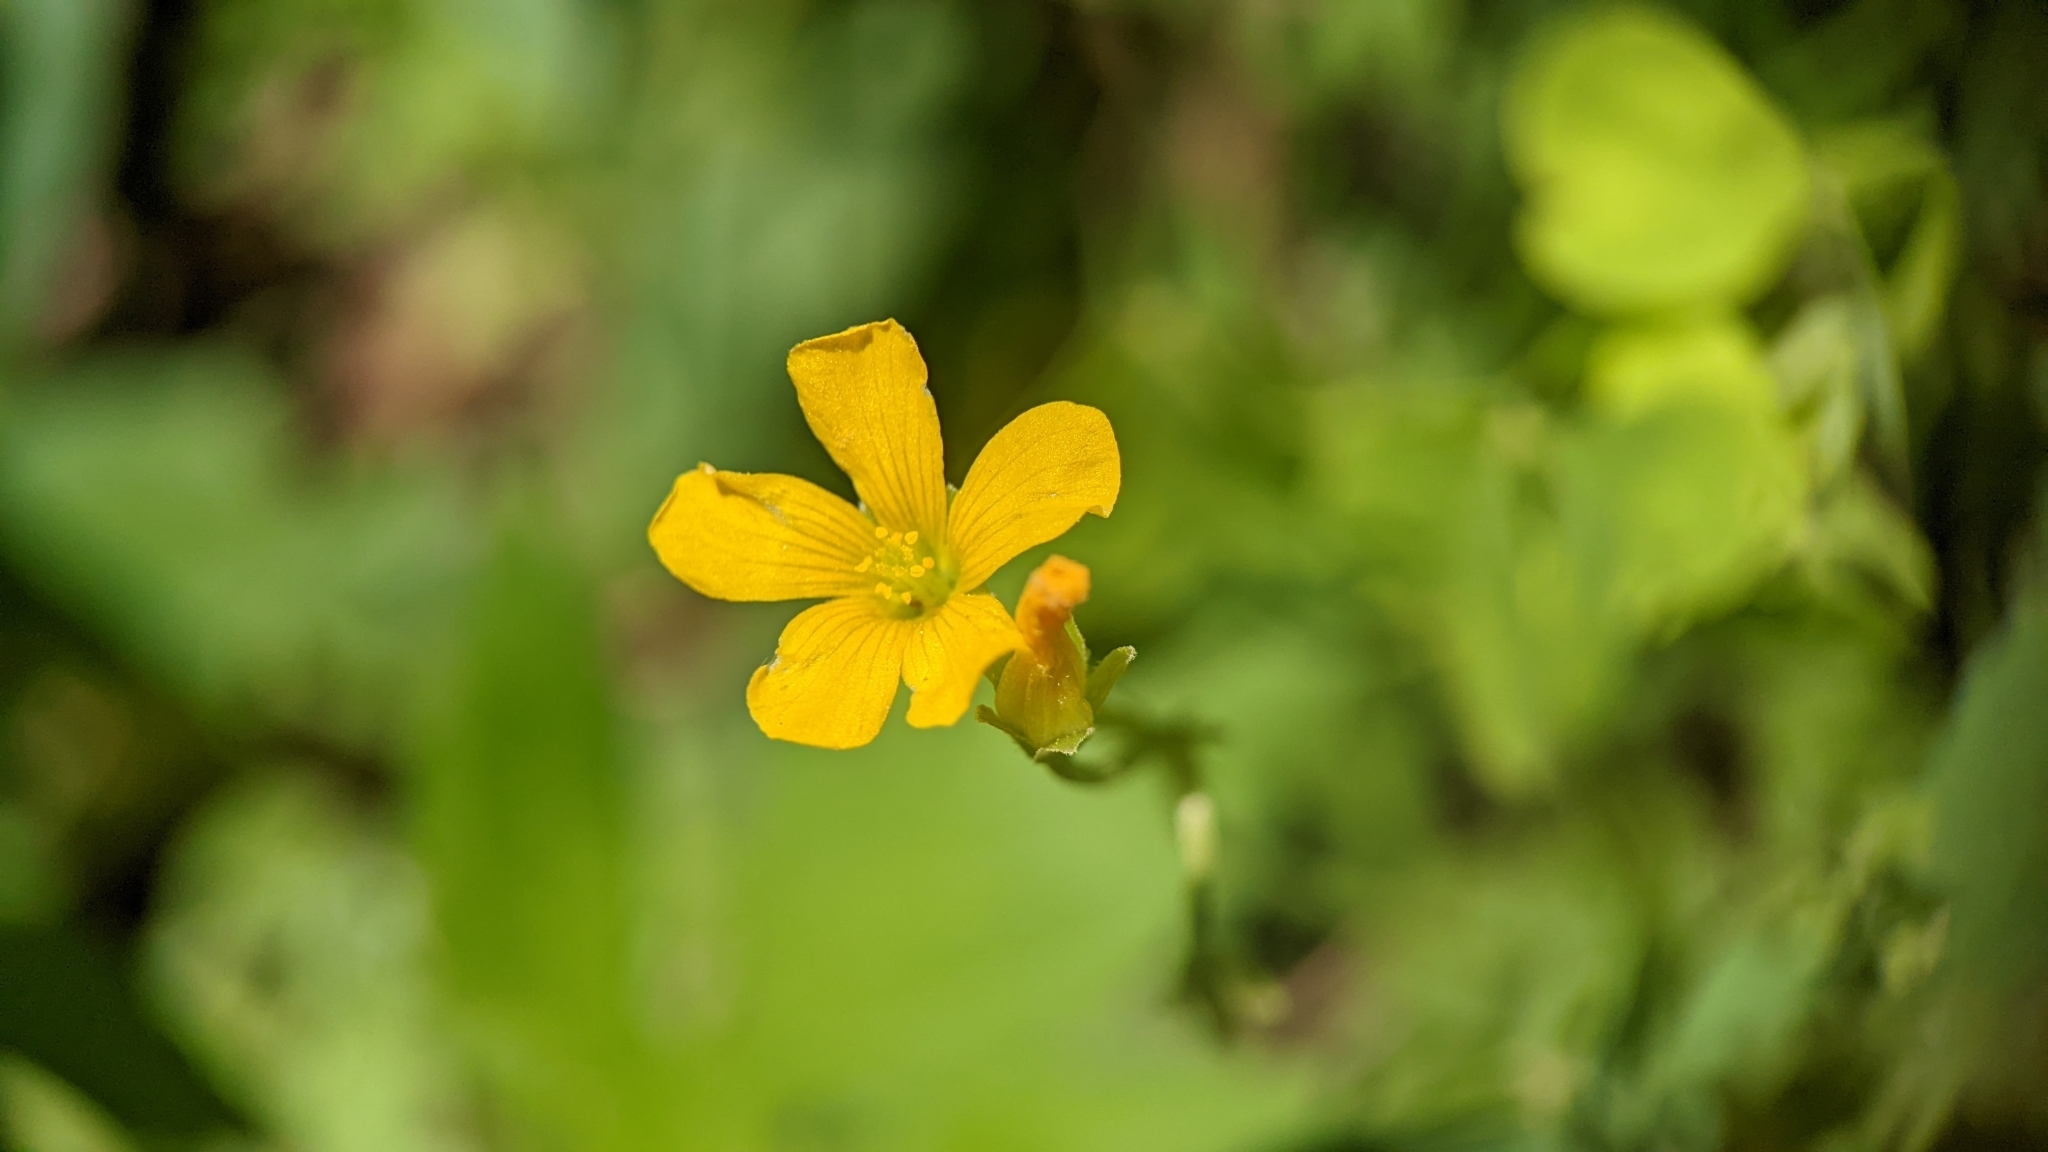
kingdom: Plantae
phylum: Tracheophyta
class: Magnoliopsida
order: Oxalidales
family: Oxalidaceae
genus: Oxalis
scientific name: Oxalis dillenii
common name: Sussex yellow-sorrel
